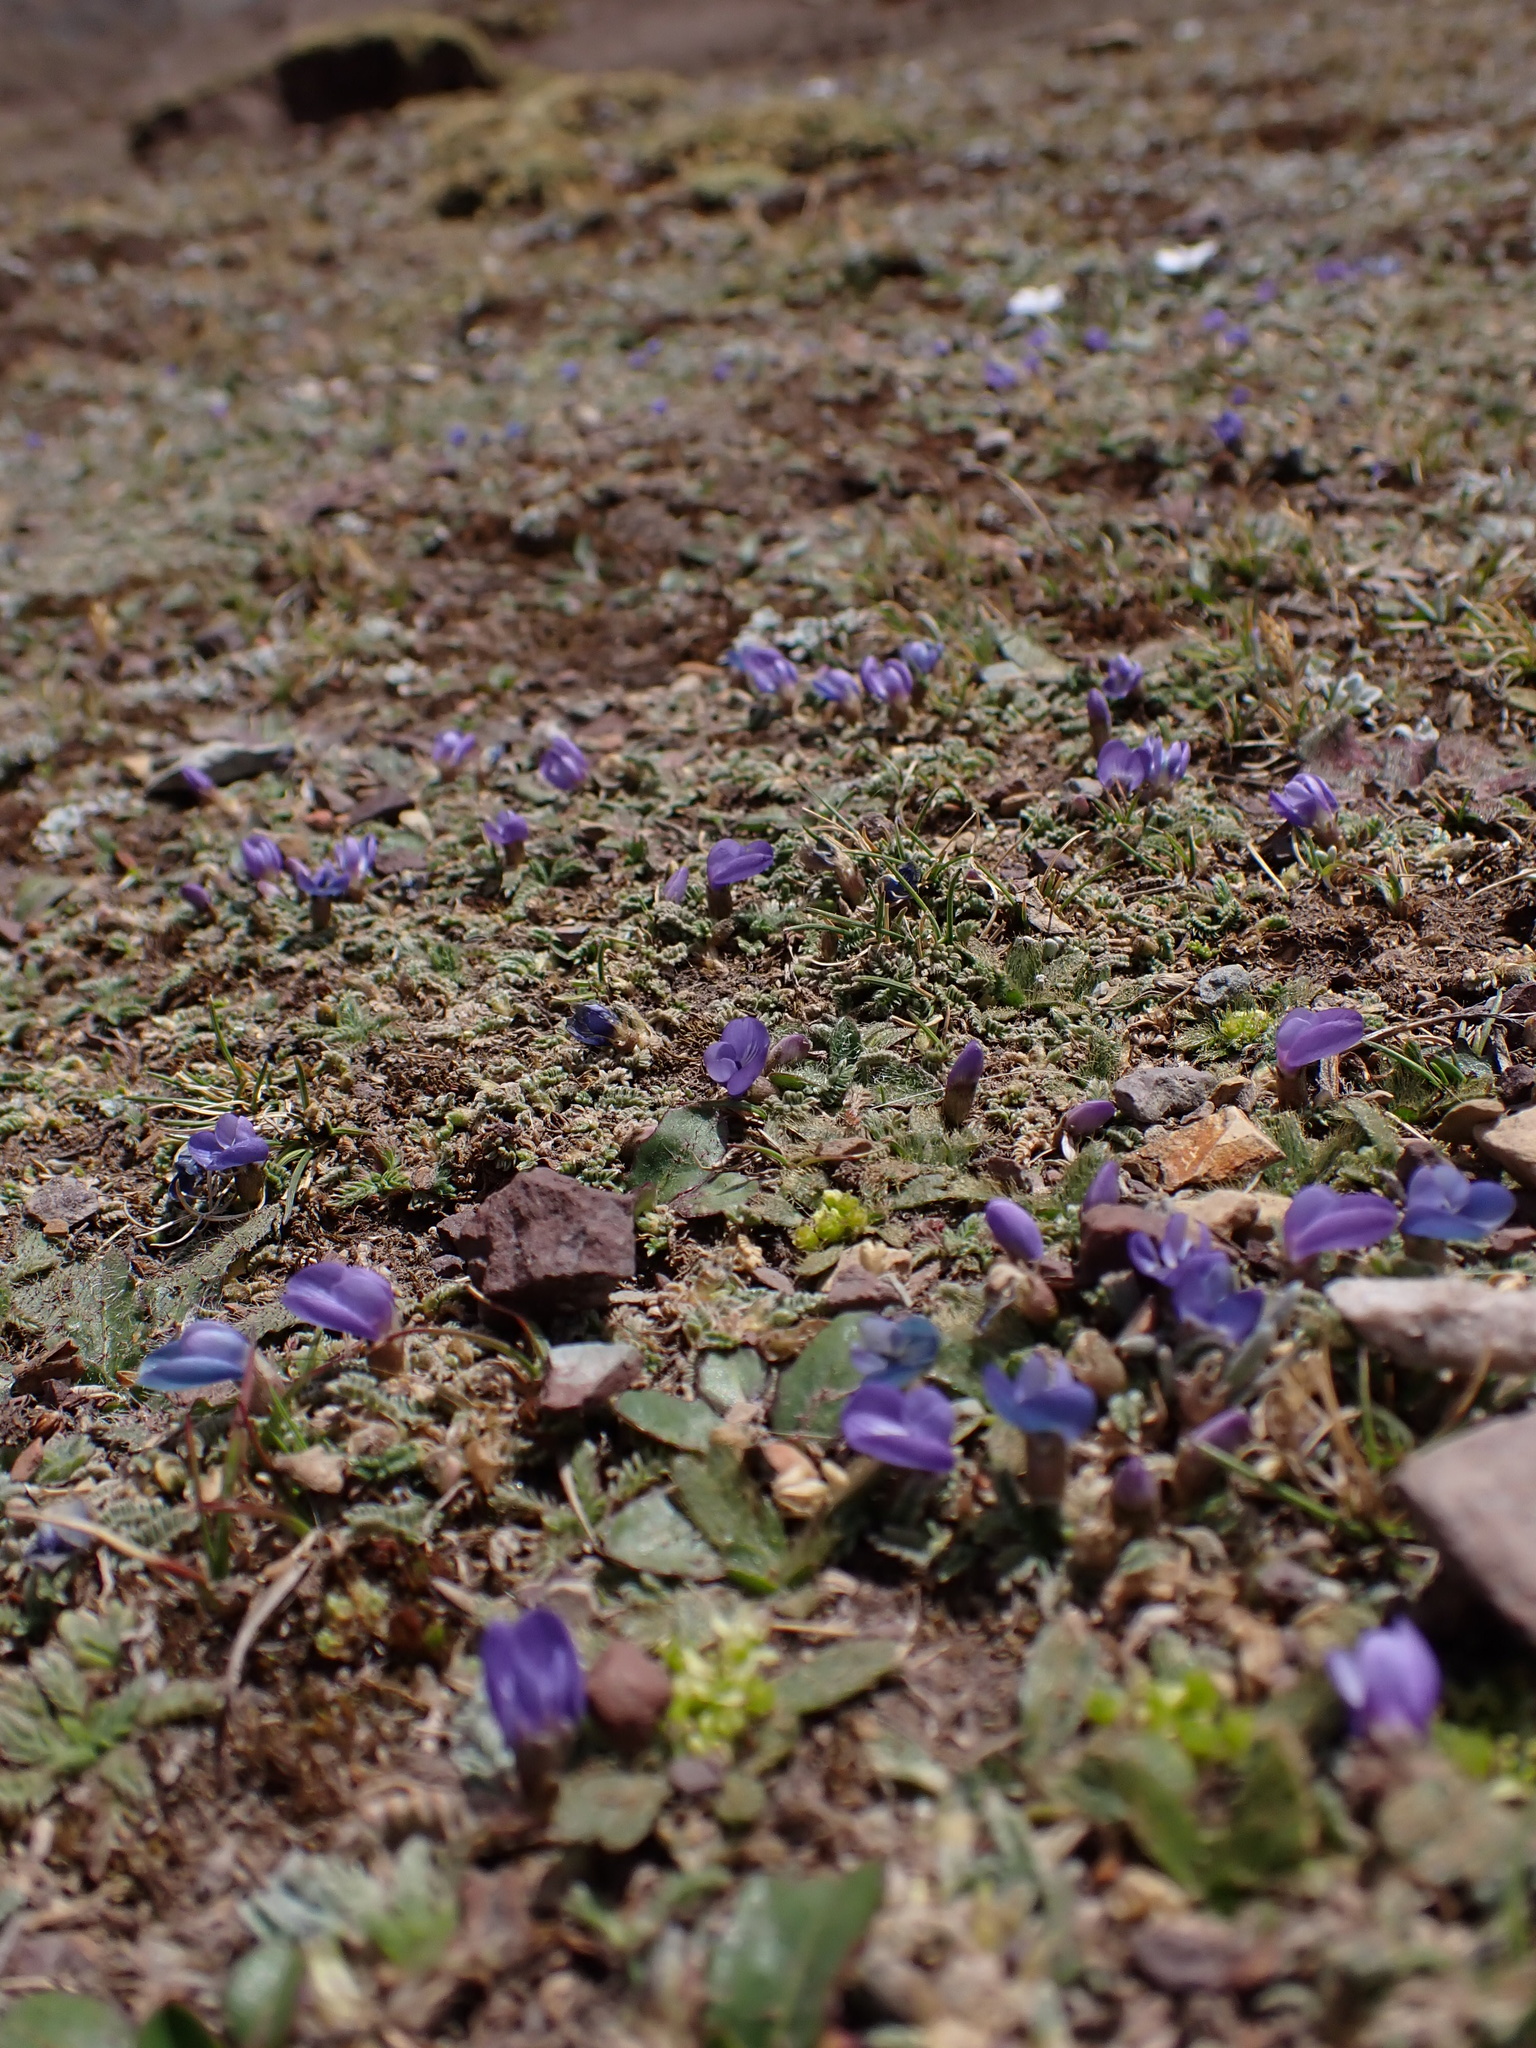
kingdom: Plantae
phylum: Tracheophyta
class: Magnoliopsida
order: Fabales
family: Fabaceae
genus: Astragalus
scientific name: Astragalus uniflorus
